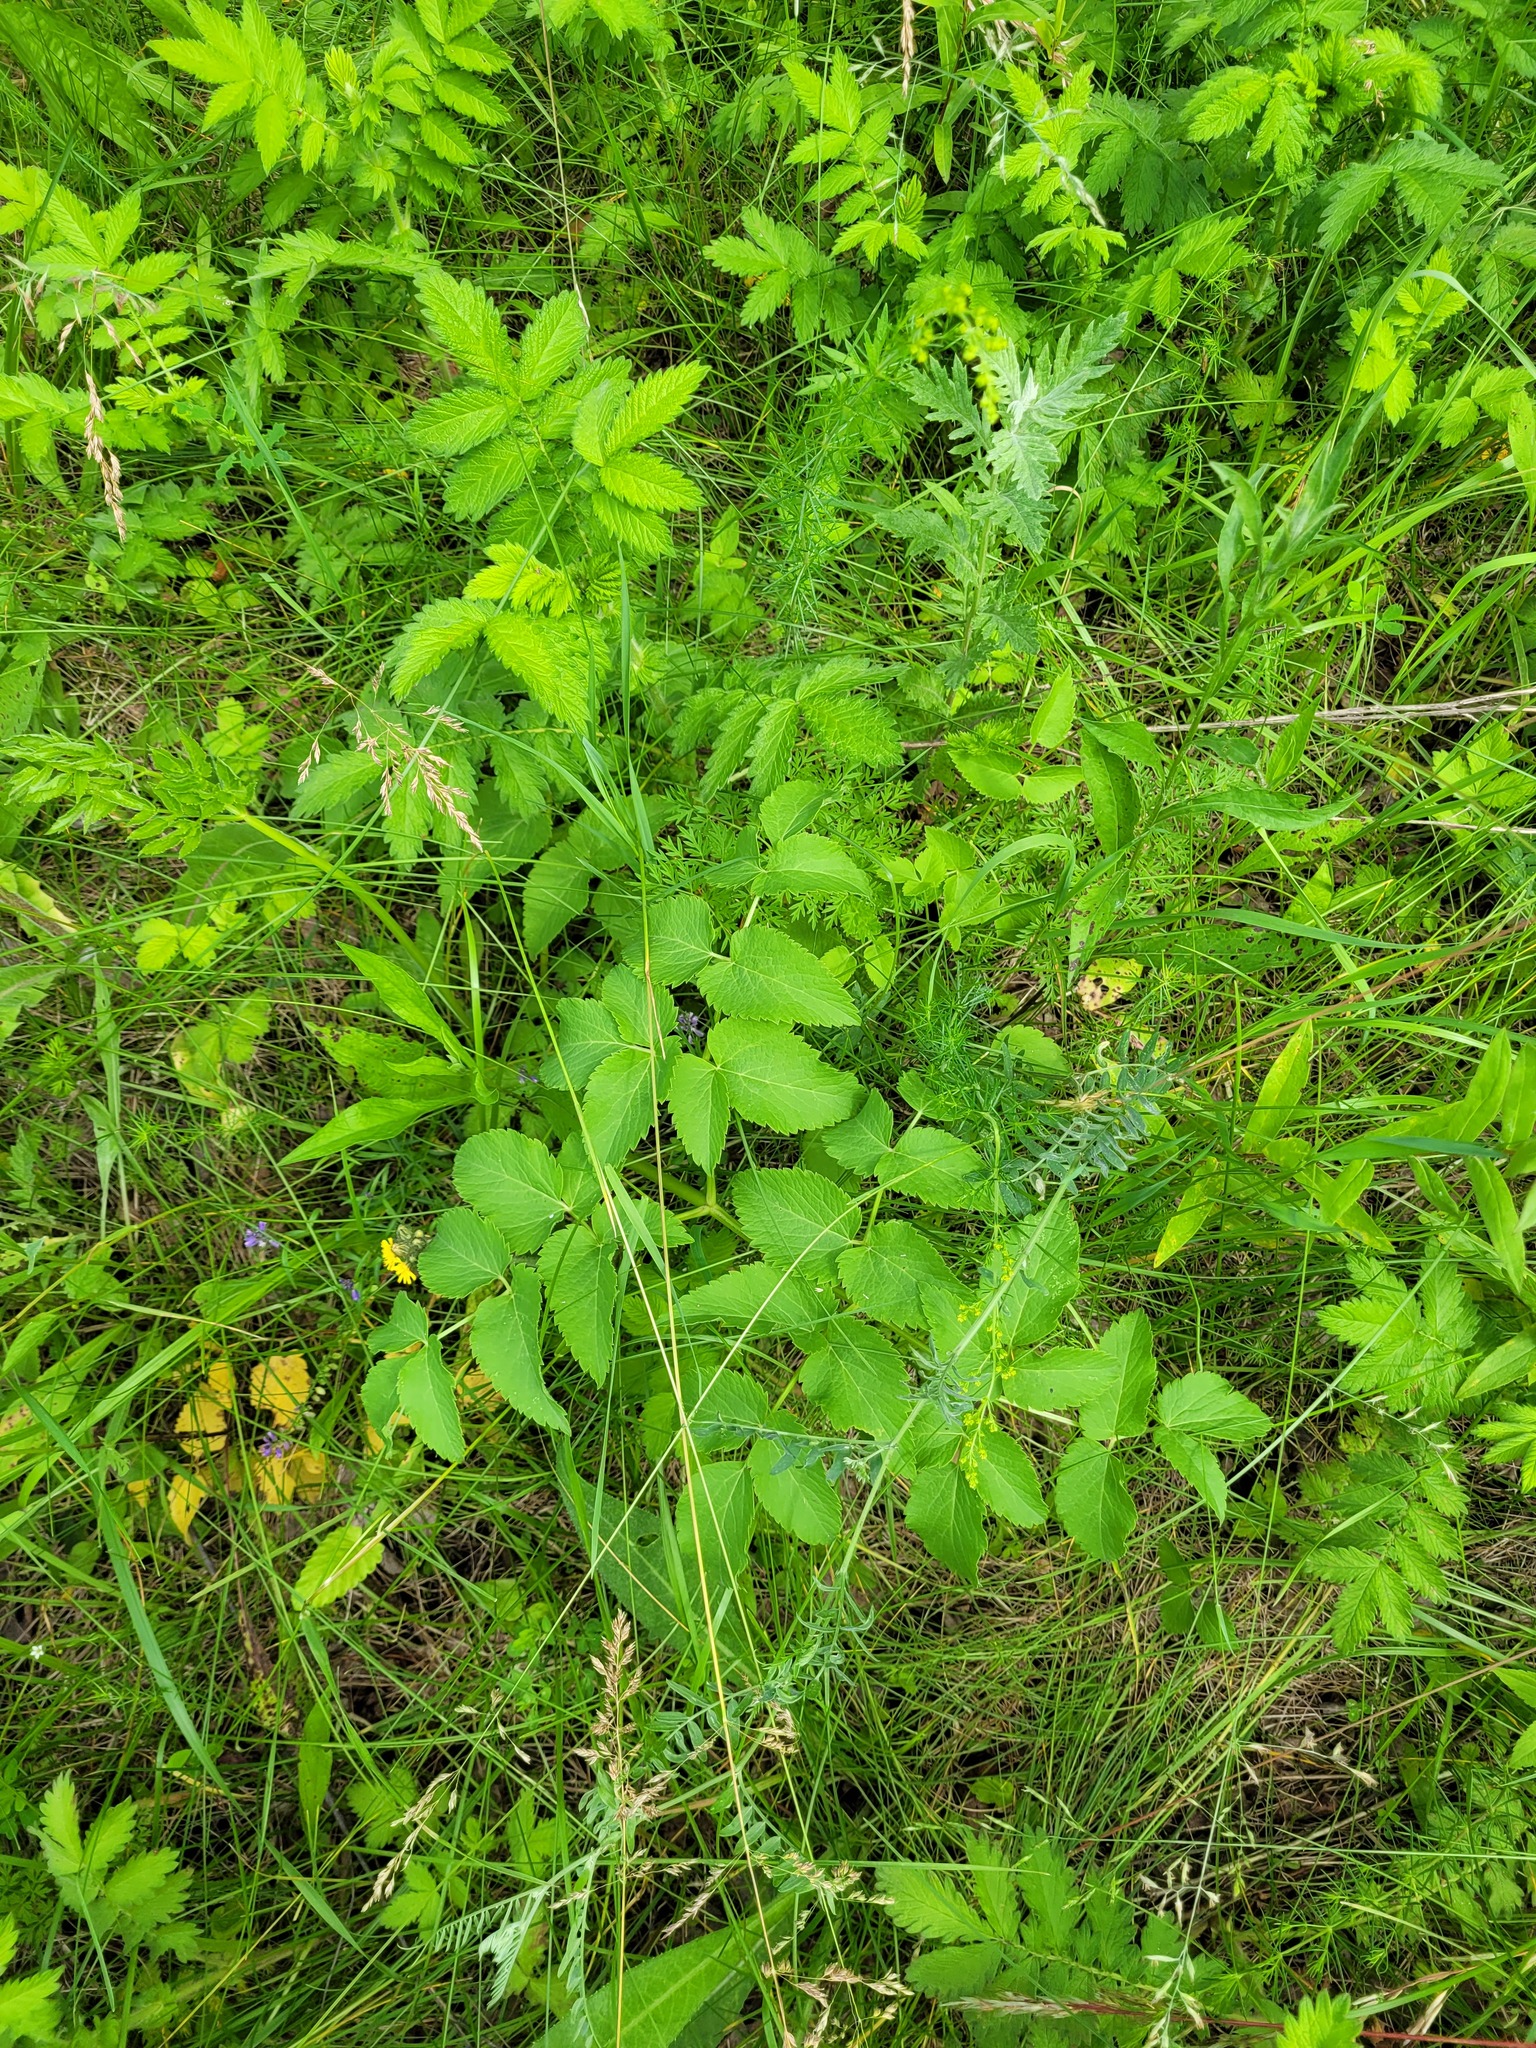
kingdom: Plantae
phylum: Tracheophyta
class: Magnoliopsida
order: Apiales
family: Apiaceae
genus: Ostericum
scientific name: Ostericum palustre
